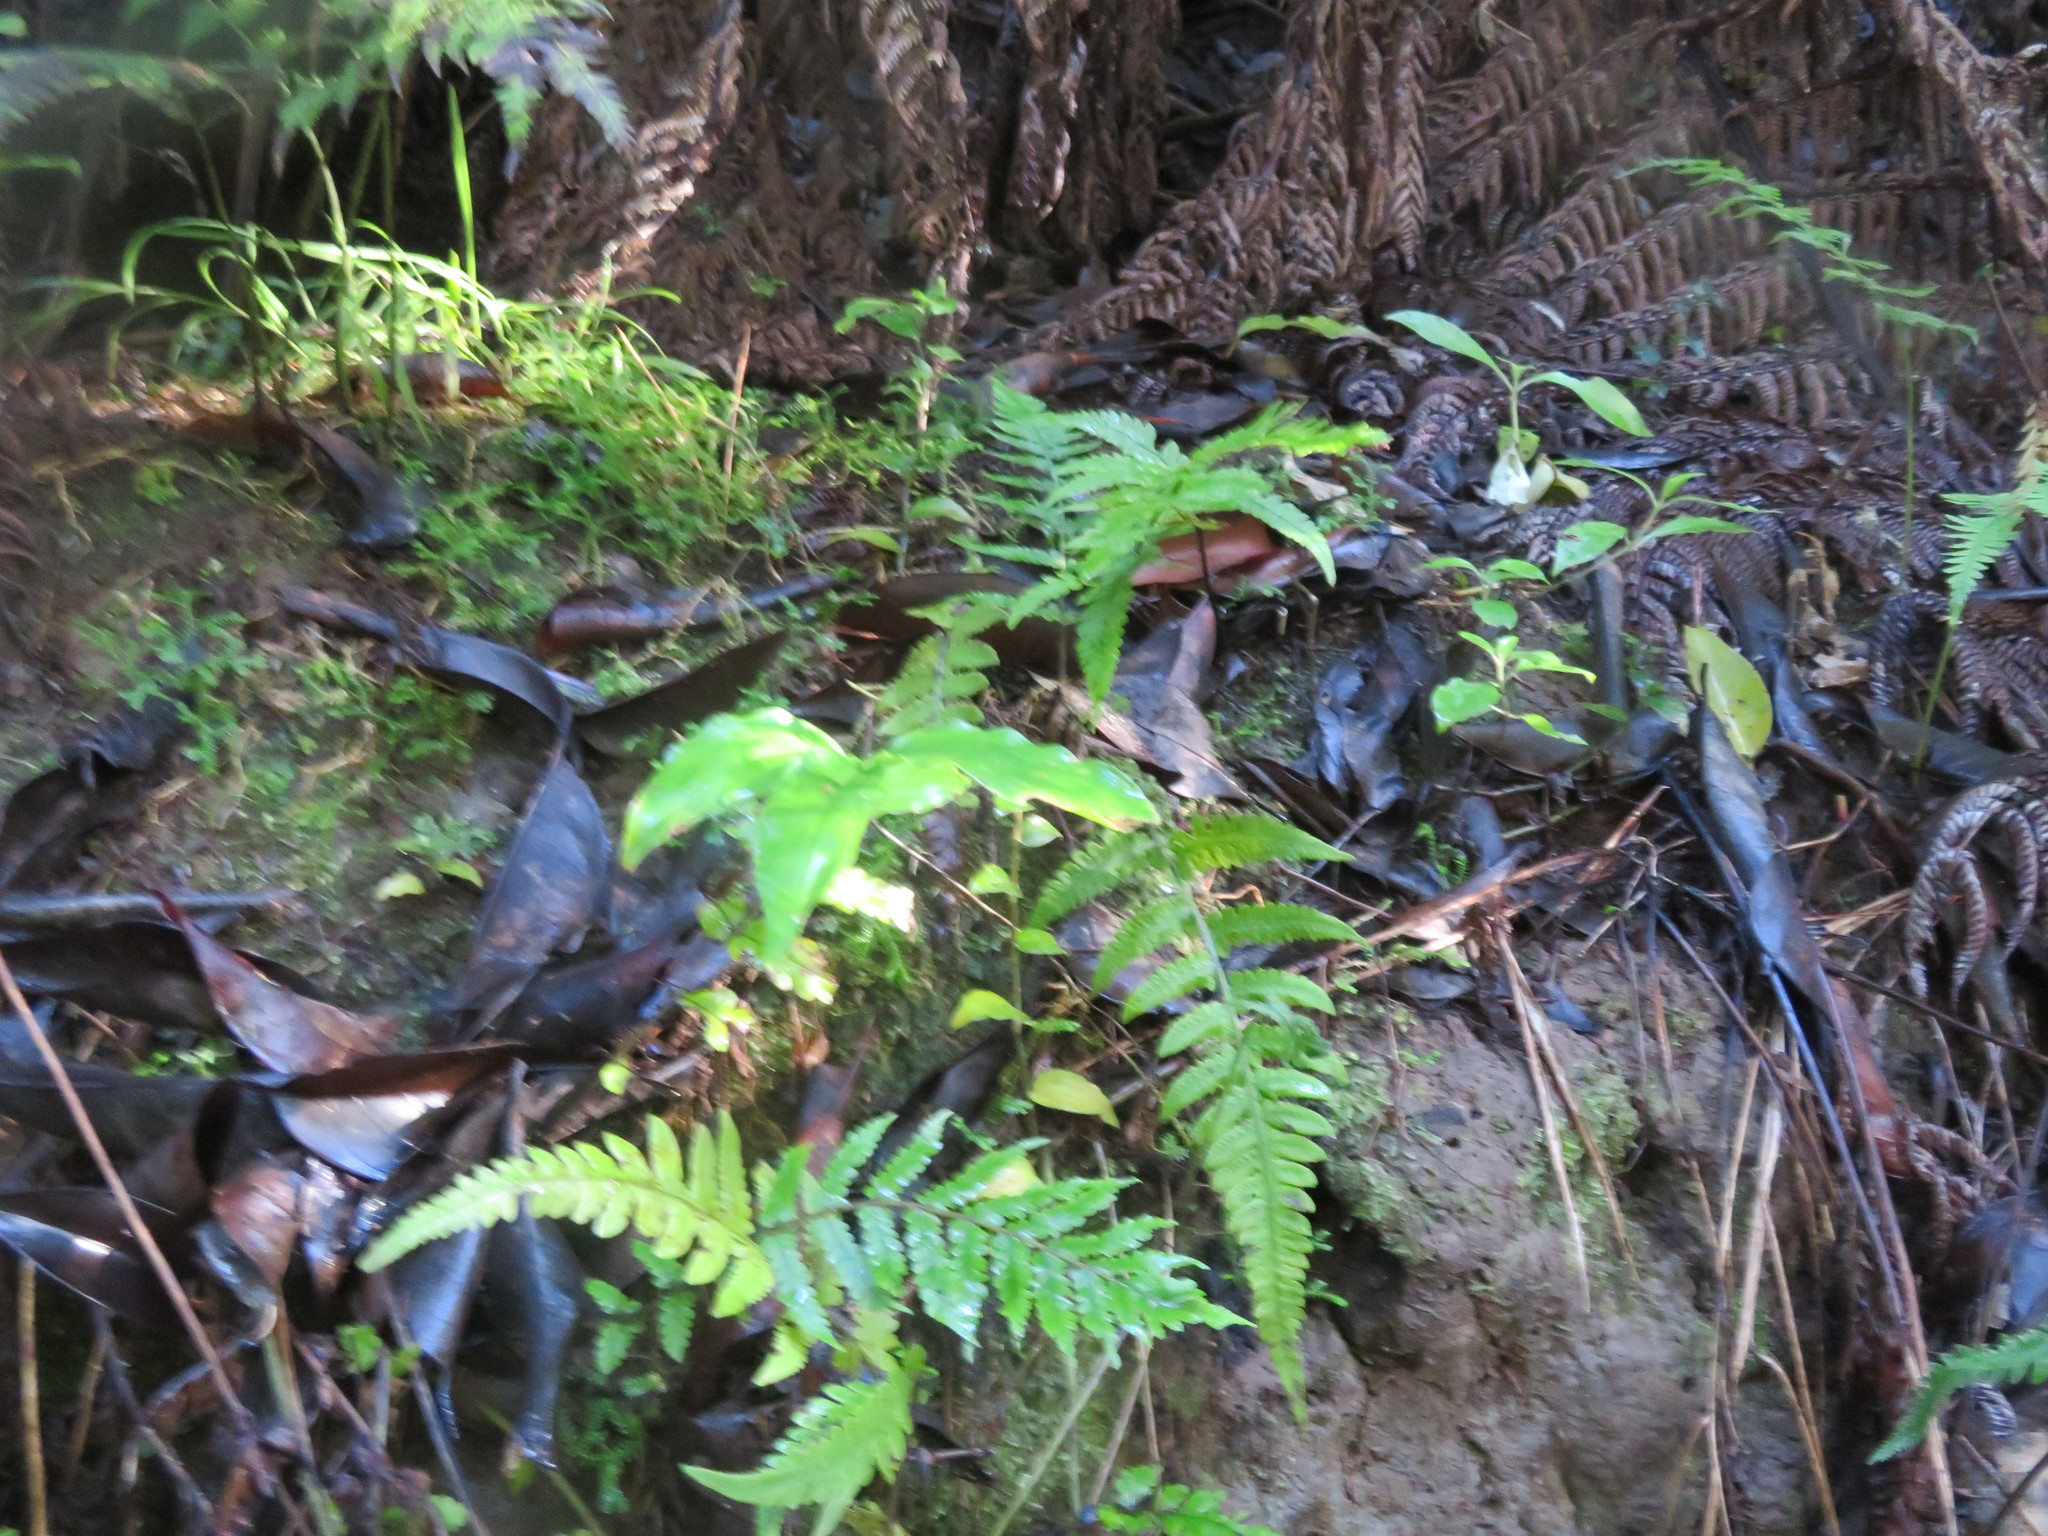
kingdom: Plantae
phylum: Tracheophyta
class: Liliopsida
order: Zingiberales
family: Zingiberaceae
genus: Hedychium
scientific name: Hedychium gardnerianum
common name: Himalayan ginger
